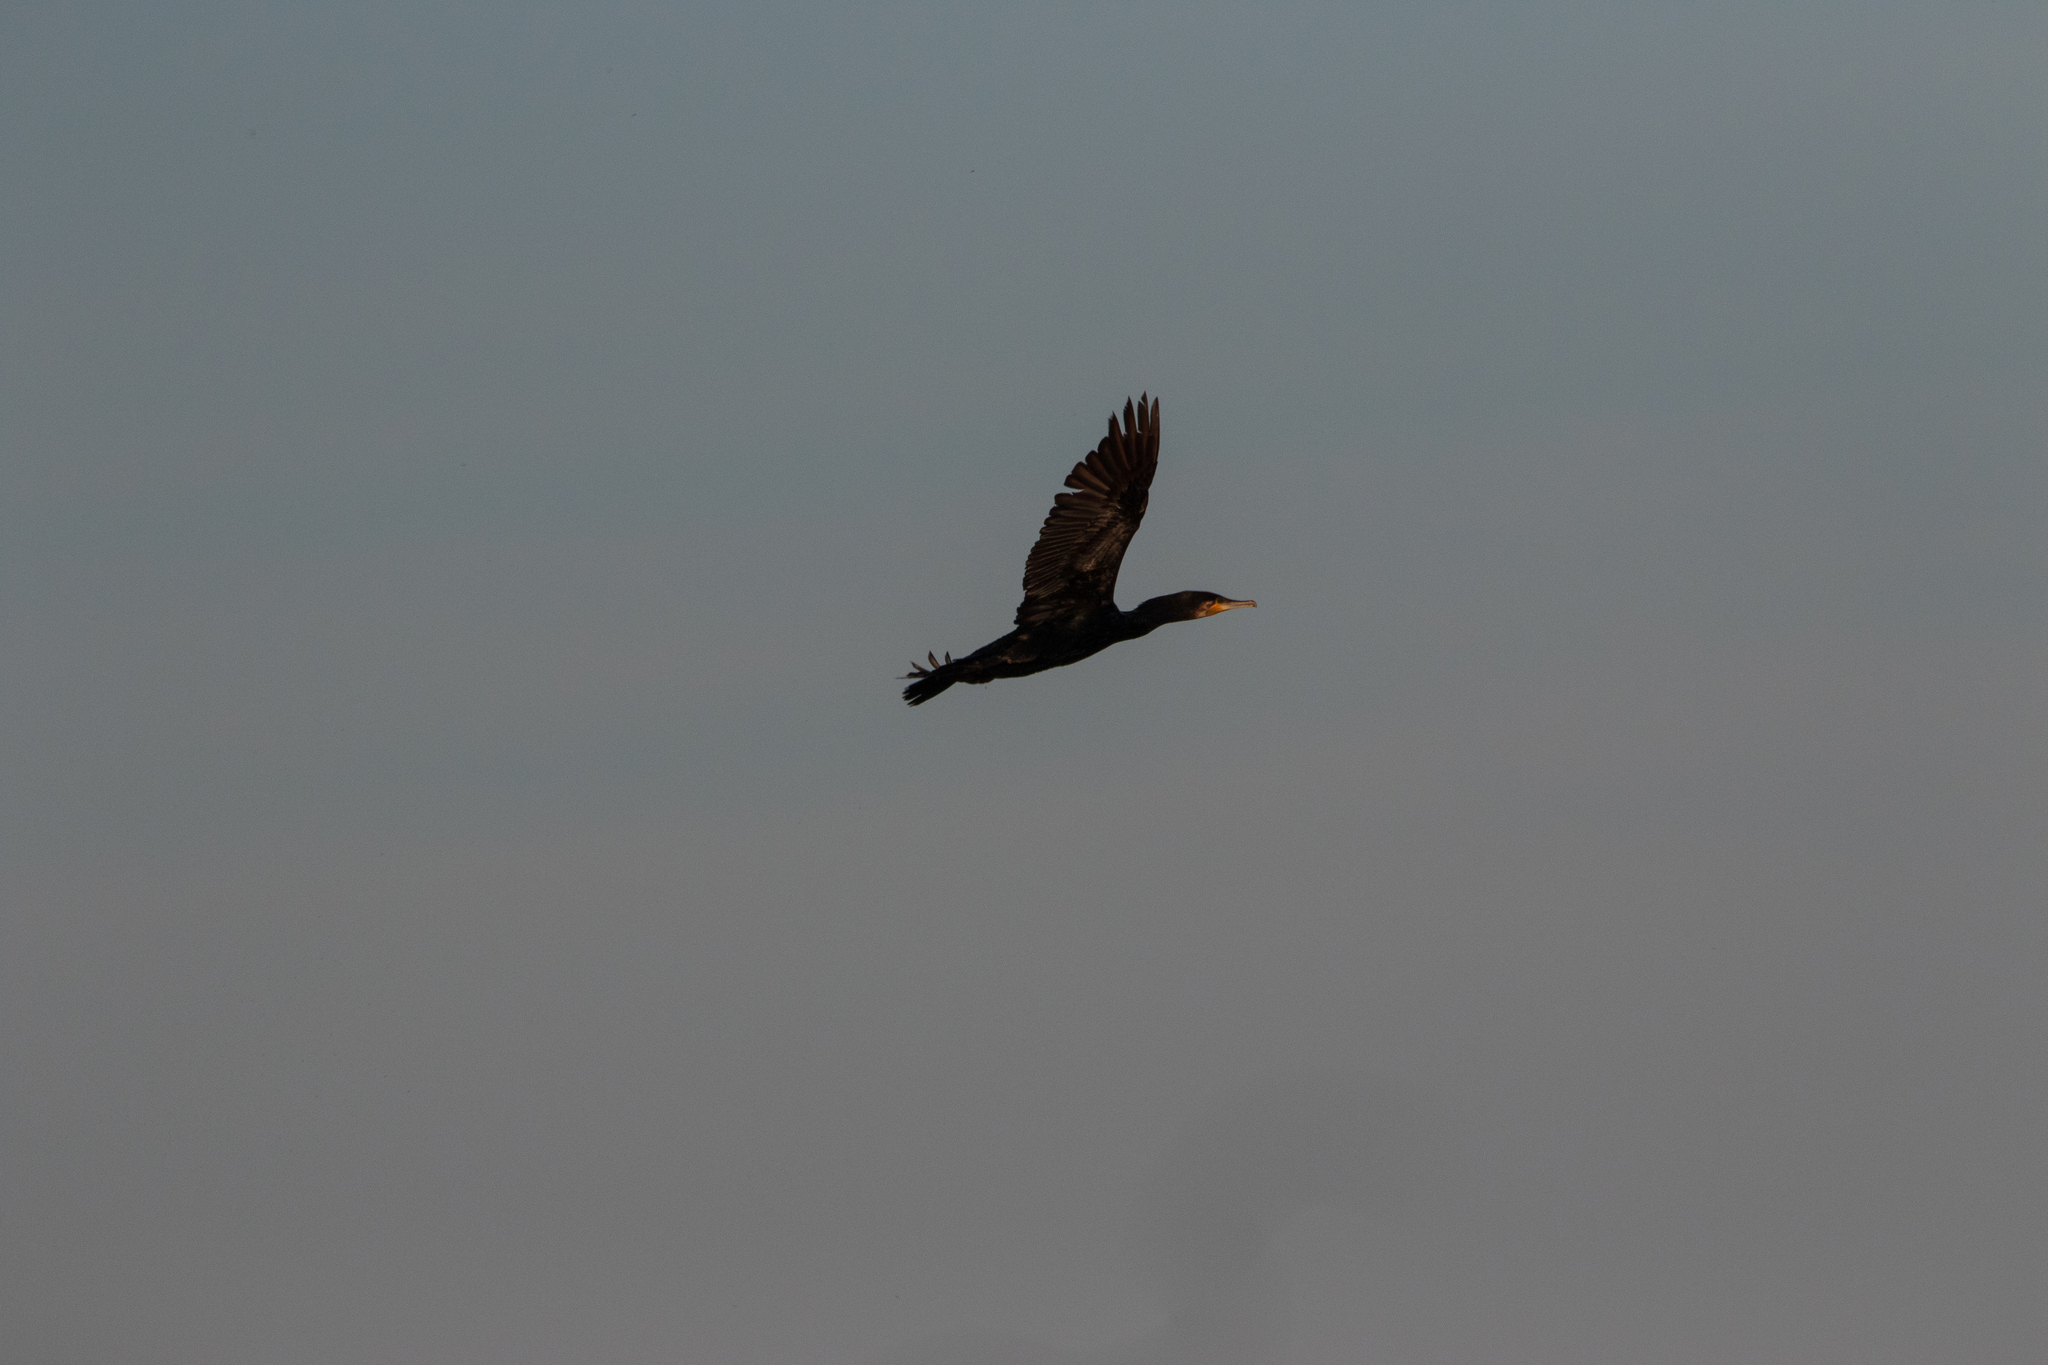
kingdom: Animalia
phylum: Chordata
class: Aves
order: Suliformes
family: Phalacrocoracidae
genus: Phalacrocorax
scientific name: Phalacrocorax carbo
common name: Great cormorant
